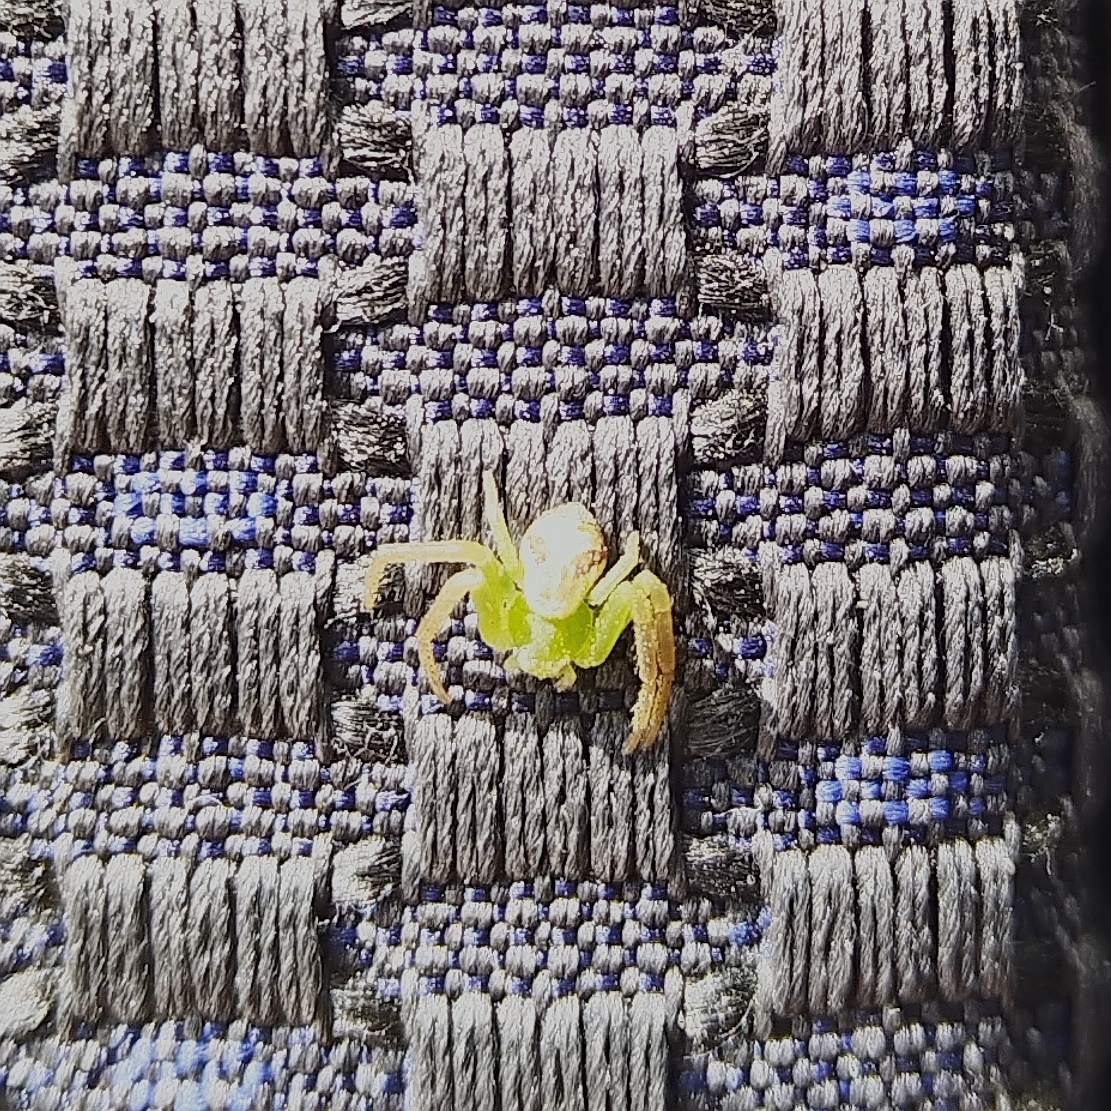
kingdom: Animalia
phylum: Arthropoda
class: Arachnida
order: Araneae
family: Thomisidae
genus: Ebrechtella
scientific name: Ebrechtella tricuspidata
